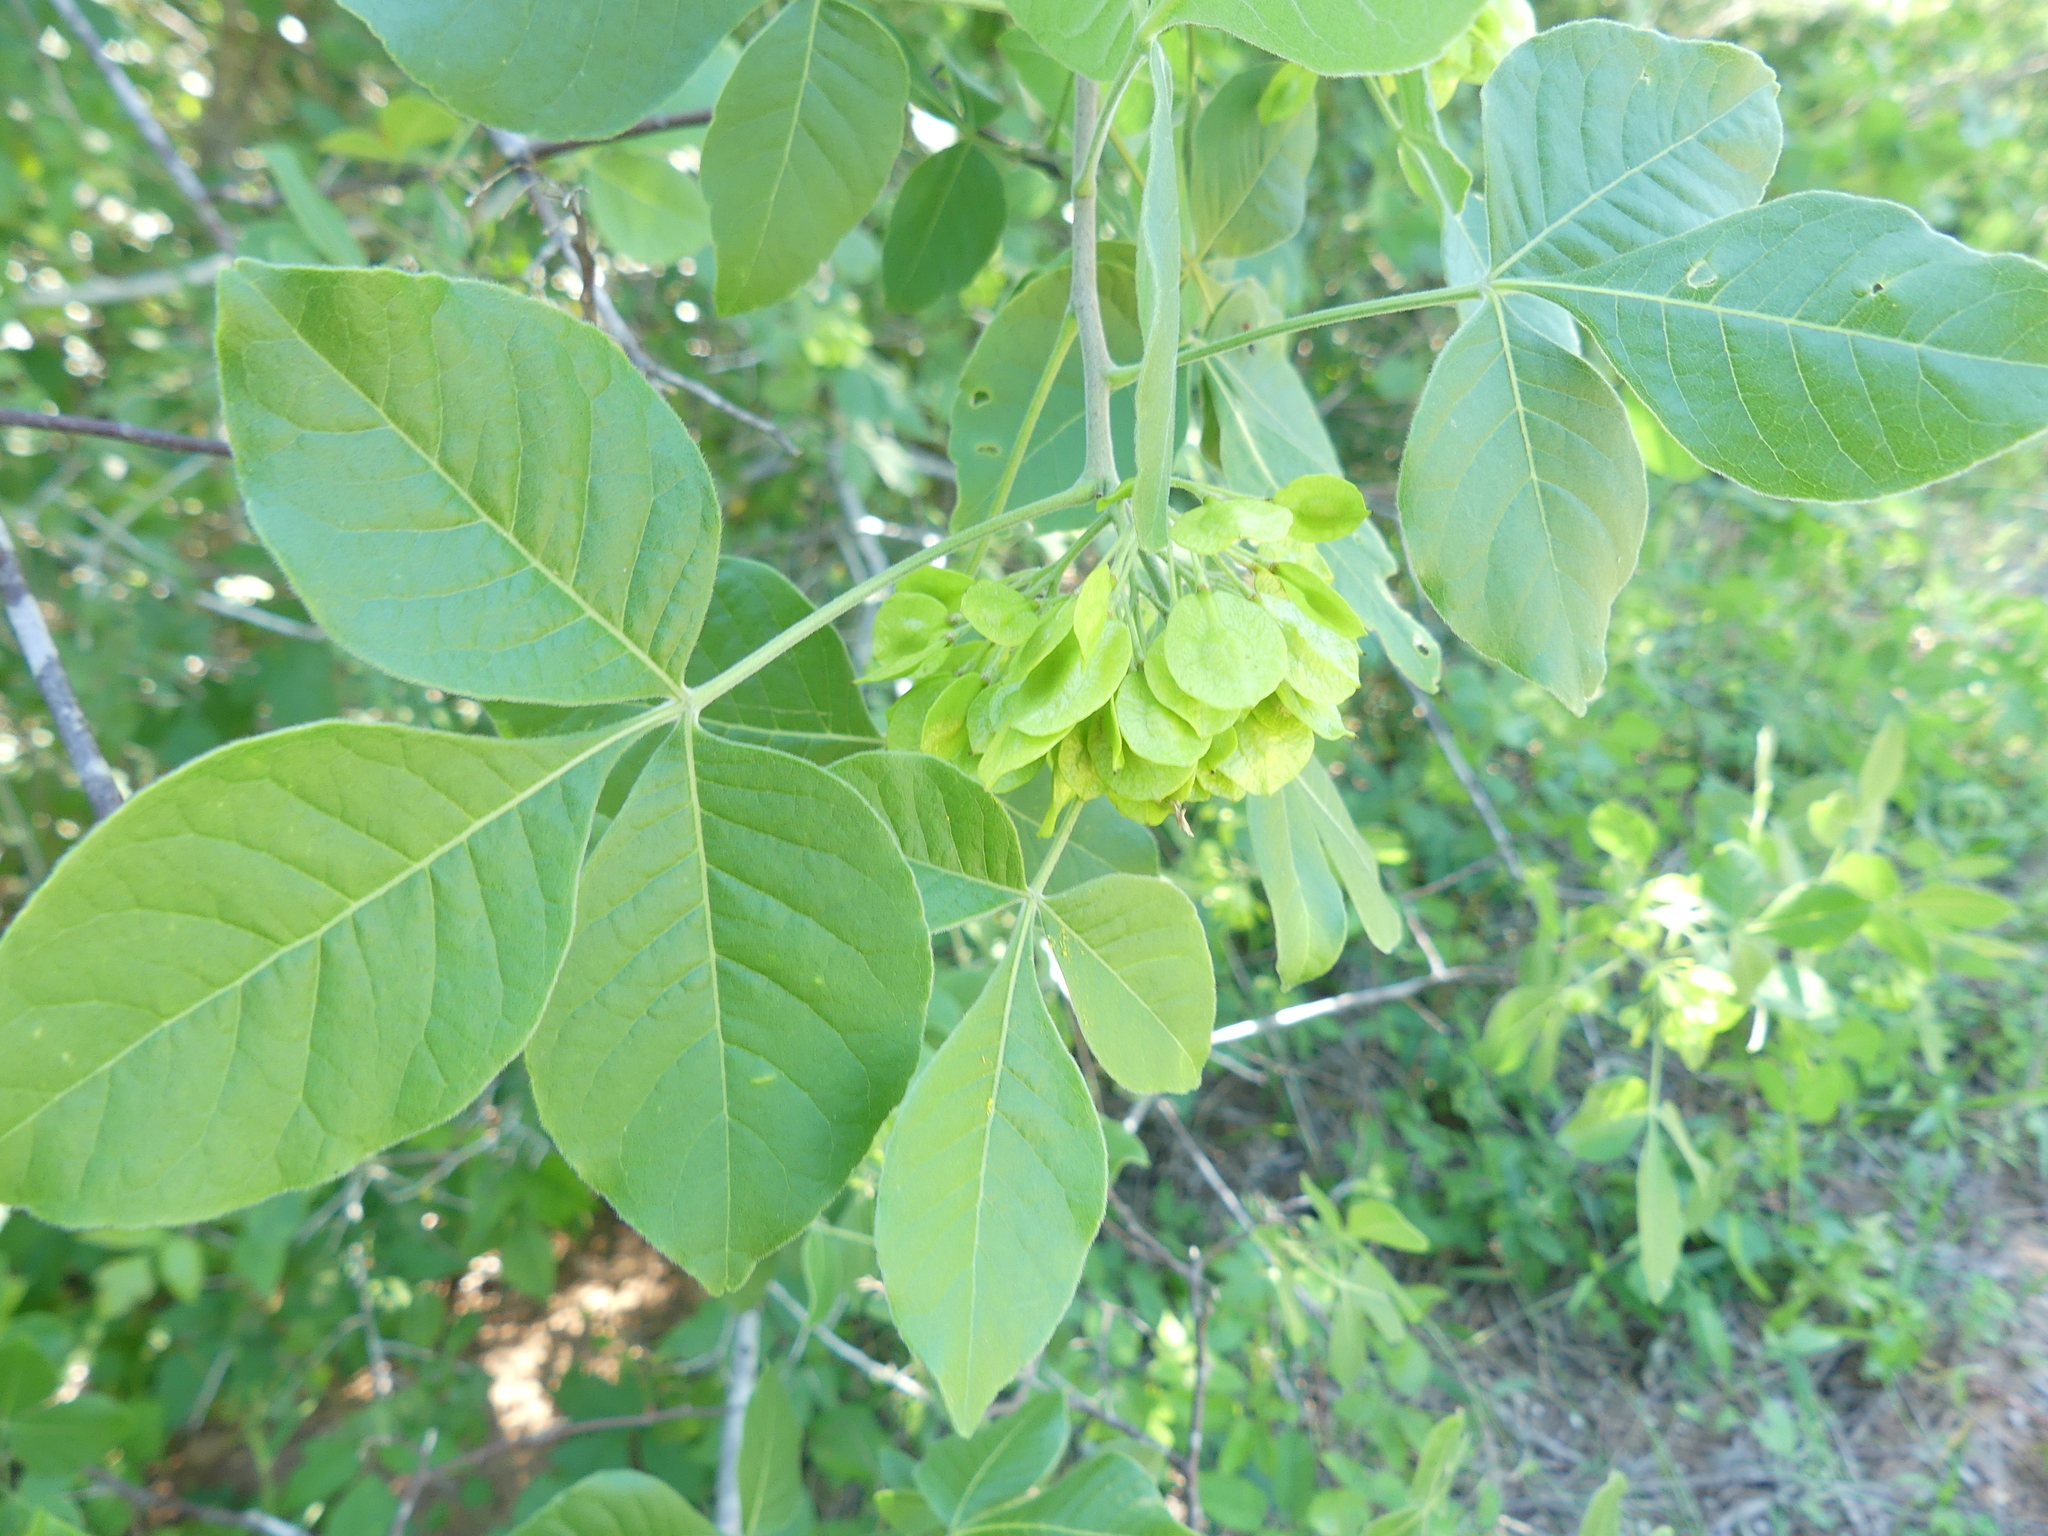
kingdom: Plantae
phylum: Tracheophyta
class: Magnoliopsida
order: Sapindales
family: Rutaceae
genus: Ptelea
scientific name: Ptelea trifoliata
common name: Common hop-tree
